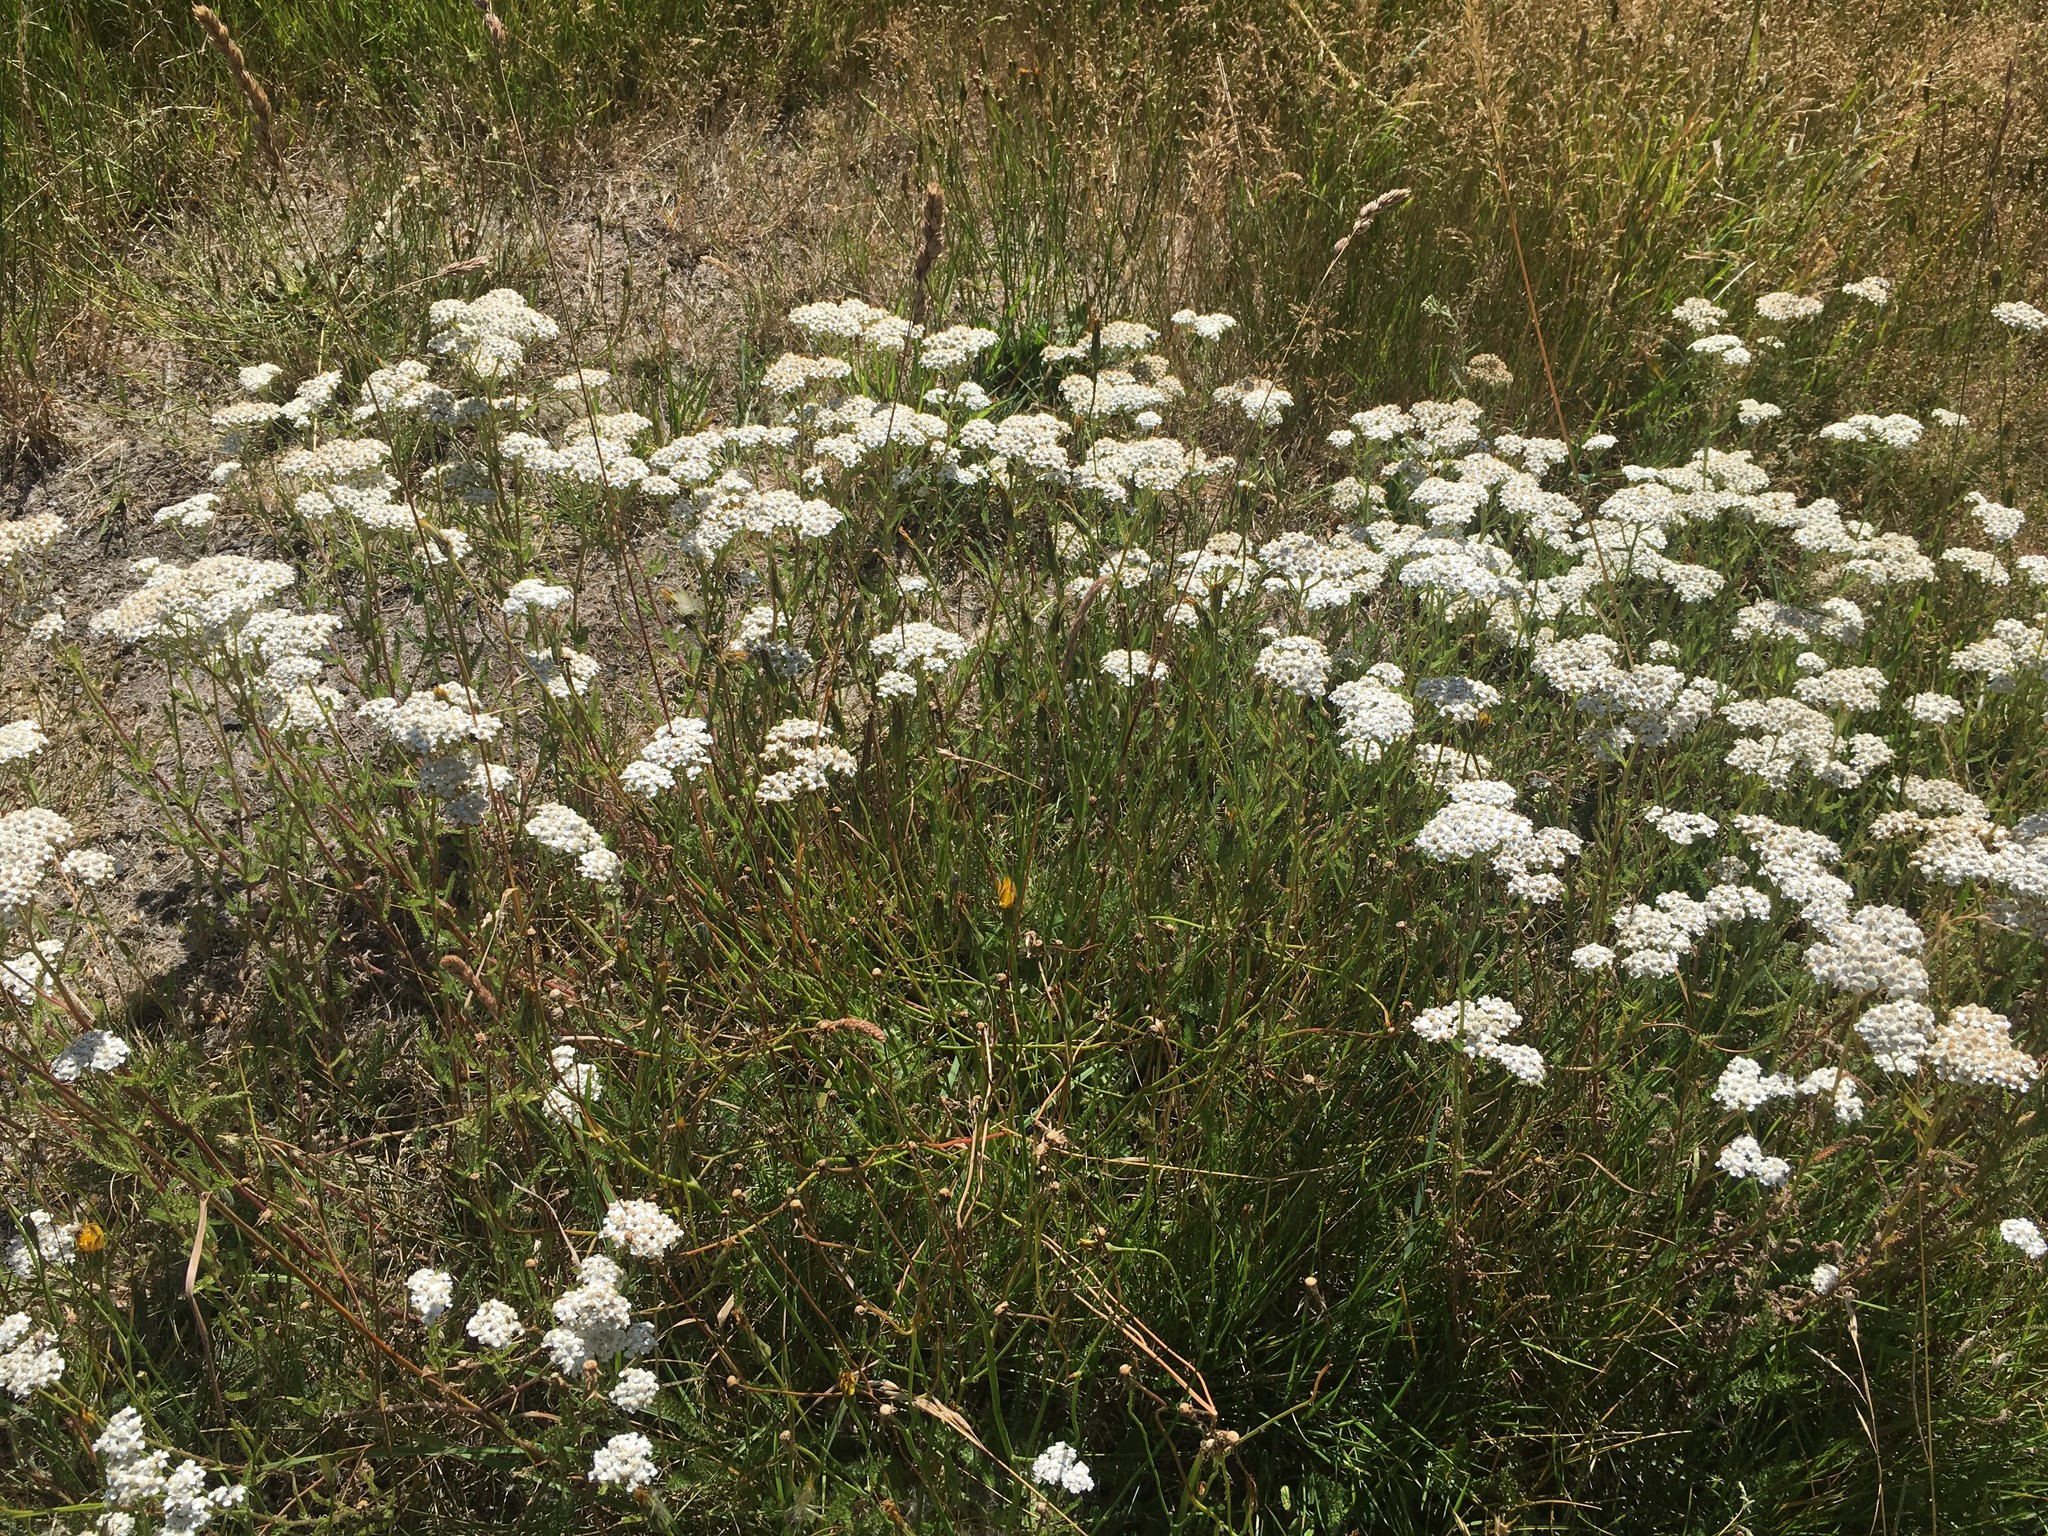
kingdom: Plantae
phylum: Tracheophyta
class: Magnoliopsida
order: Asterales
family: Asteraceae
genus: Achillea
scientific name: Achillea millefolium
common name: Yarrow
